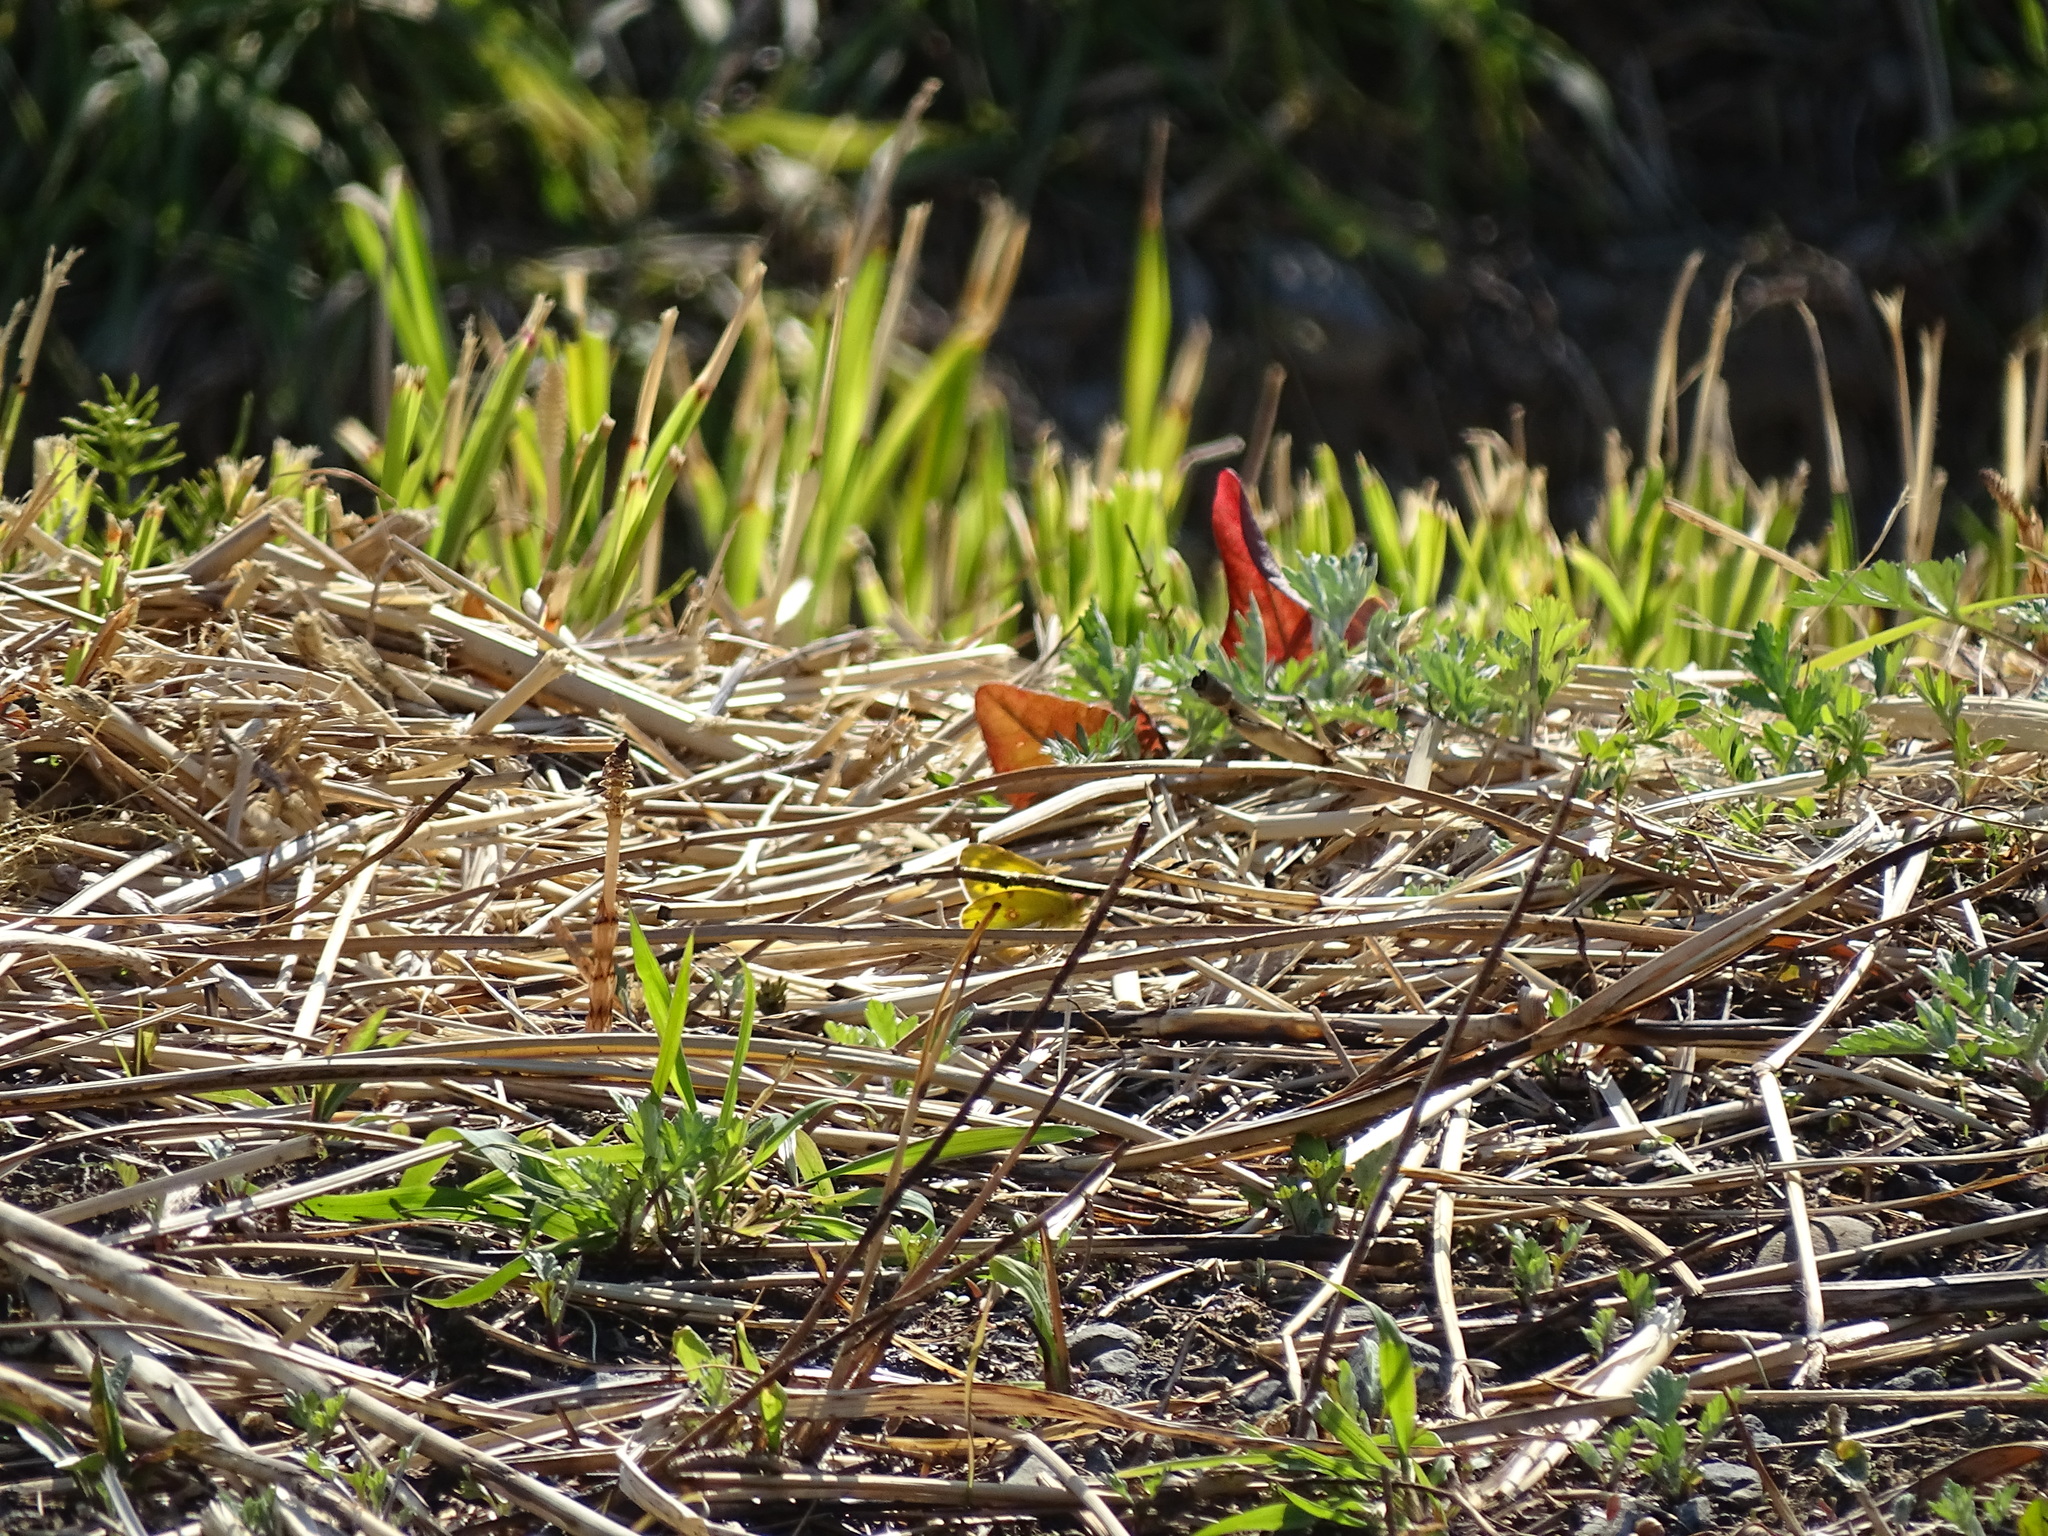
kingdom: Animalia
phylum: Arthropoda
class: Insecta
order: Lepidoptera
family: Pieridae
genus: Colias
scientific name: Colias poliographus
